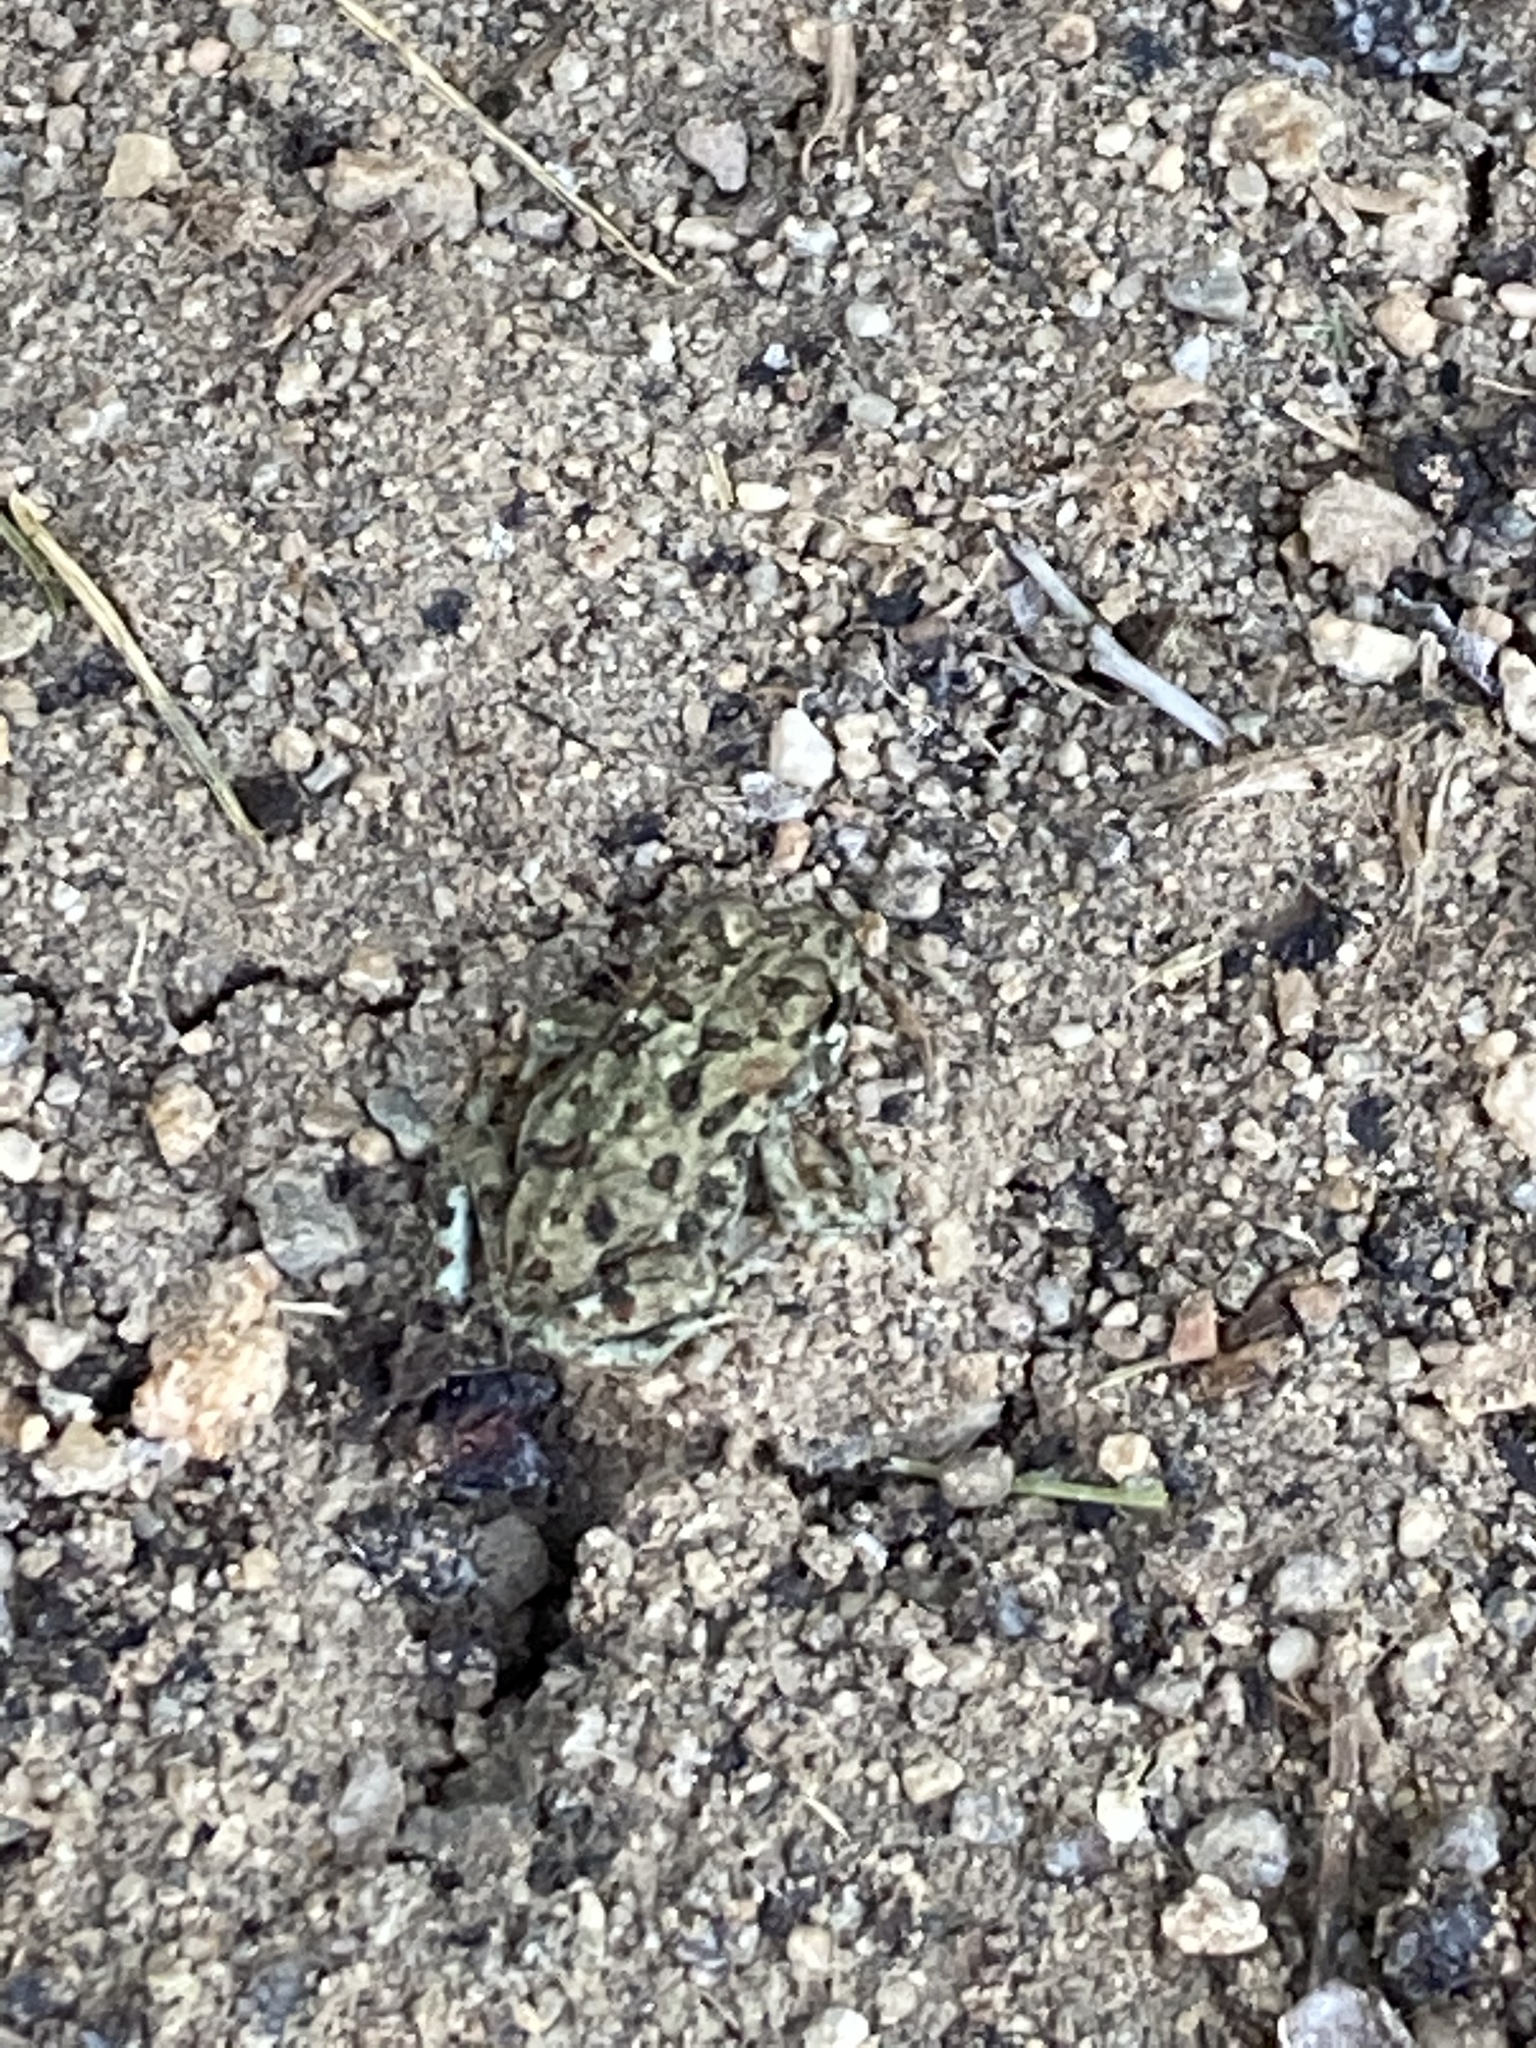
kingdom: Animalia
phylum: Chordata
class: Amphibia
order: Anura
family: Bufonidae
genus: Anaxyrus
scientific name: Anaxyrus boreas
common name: Western toad
